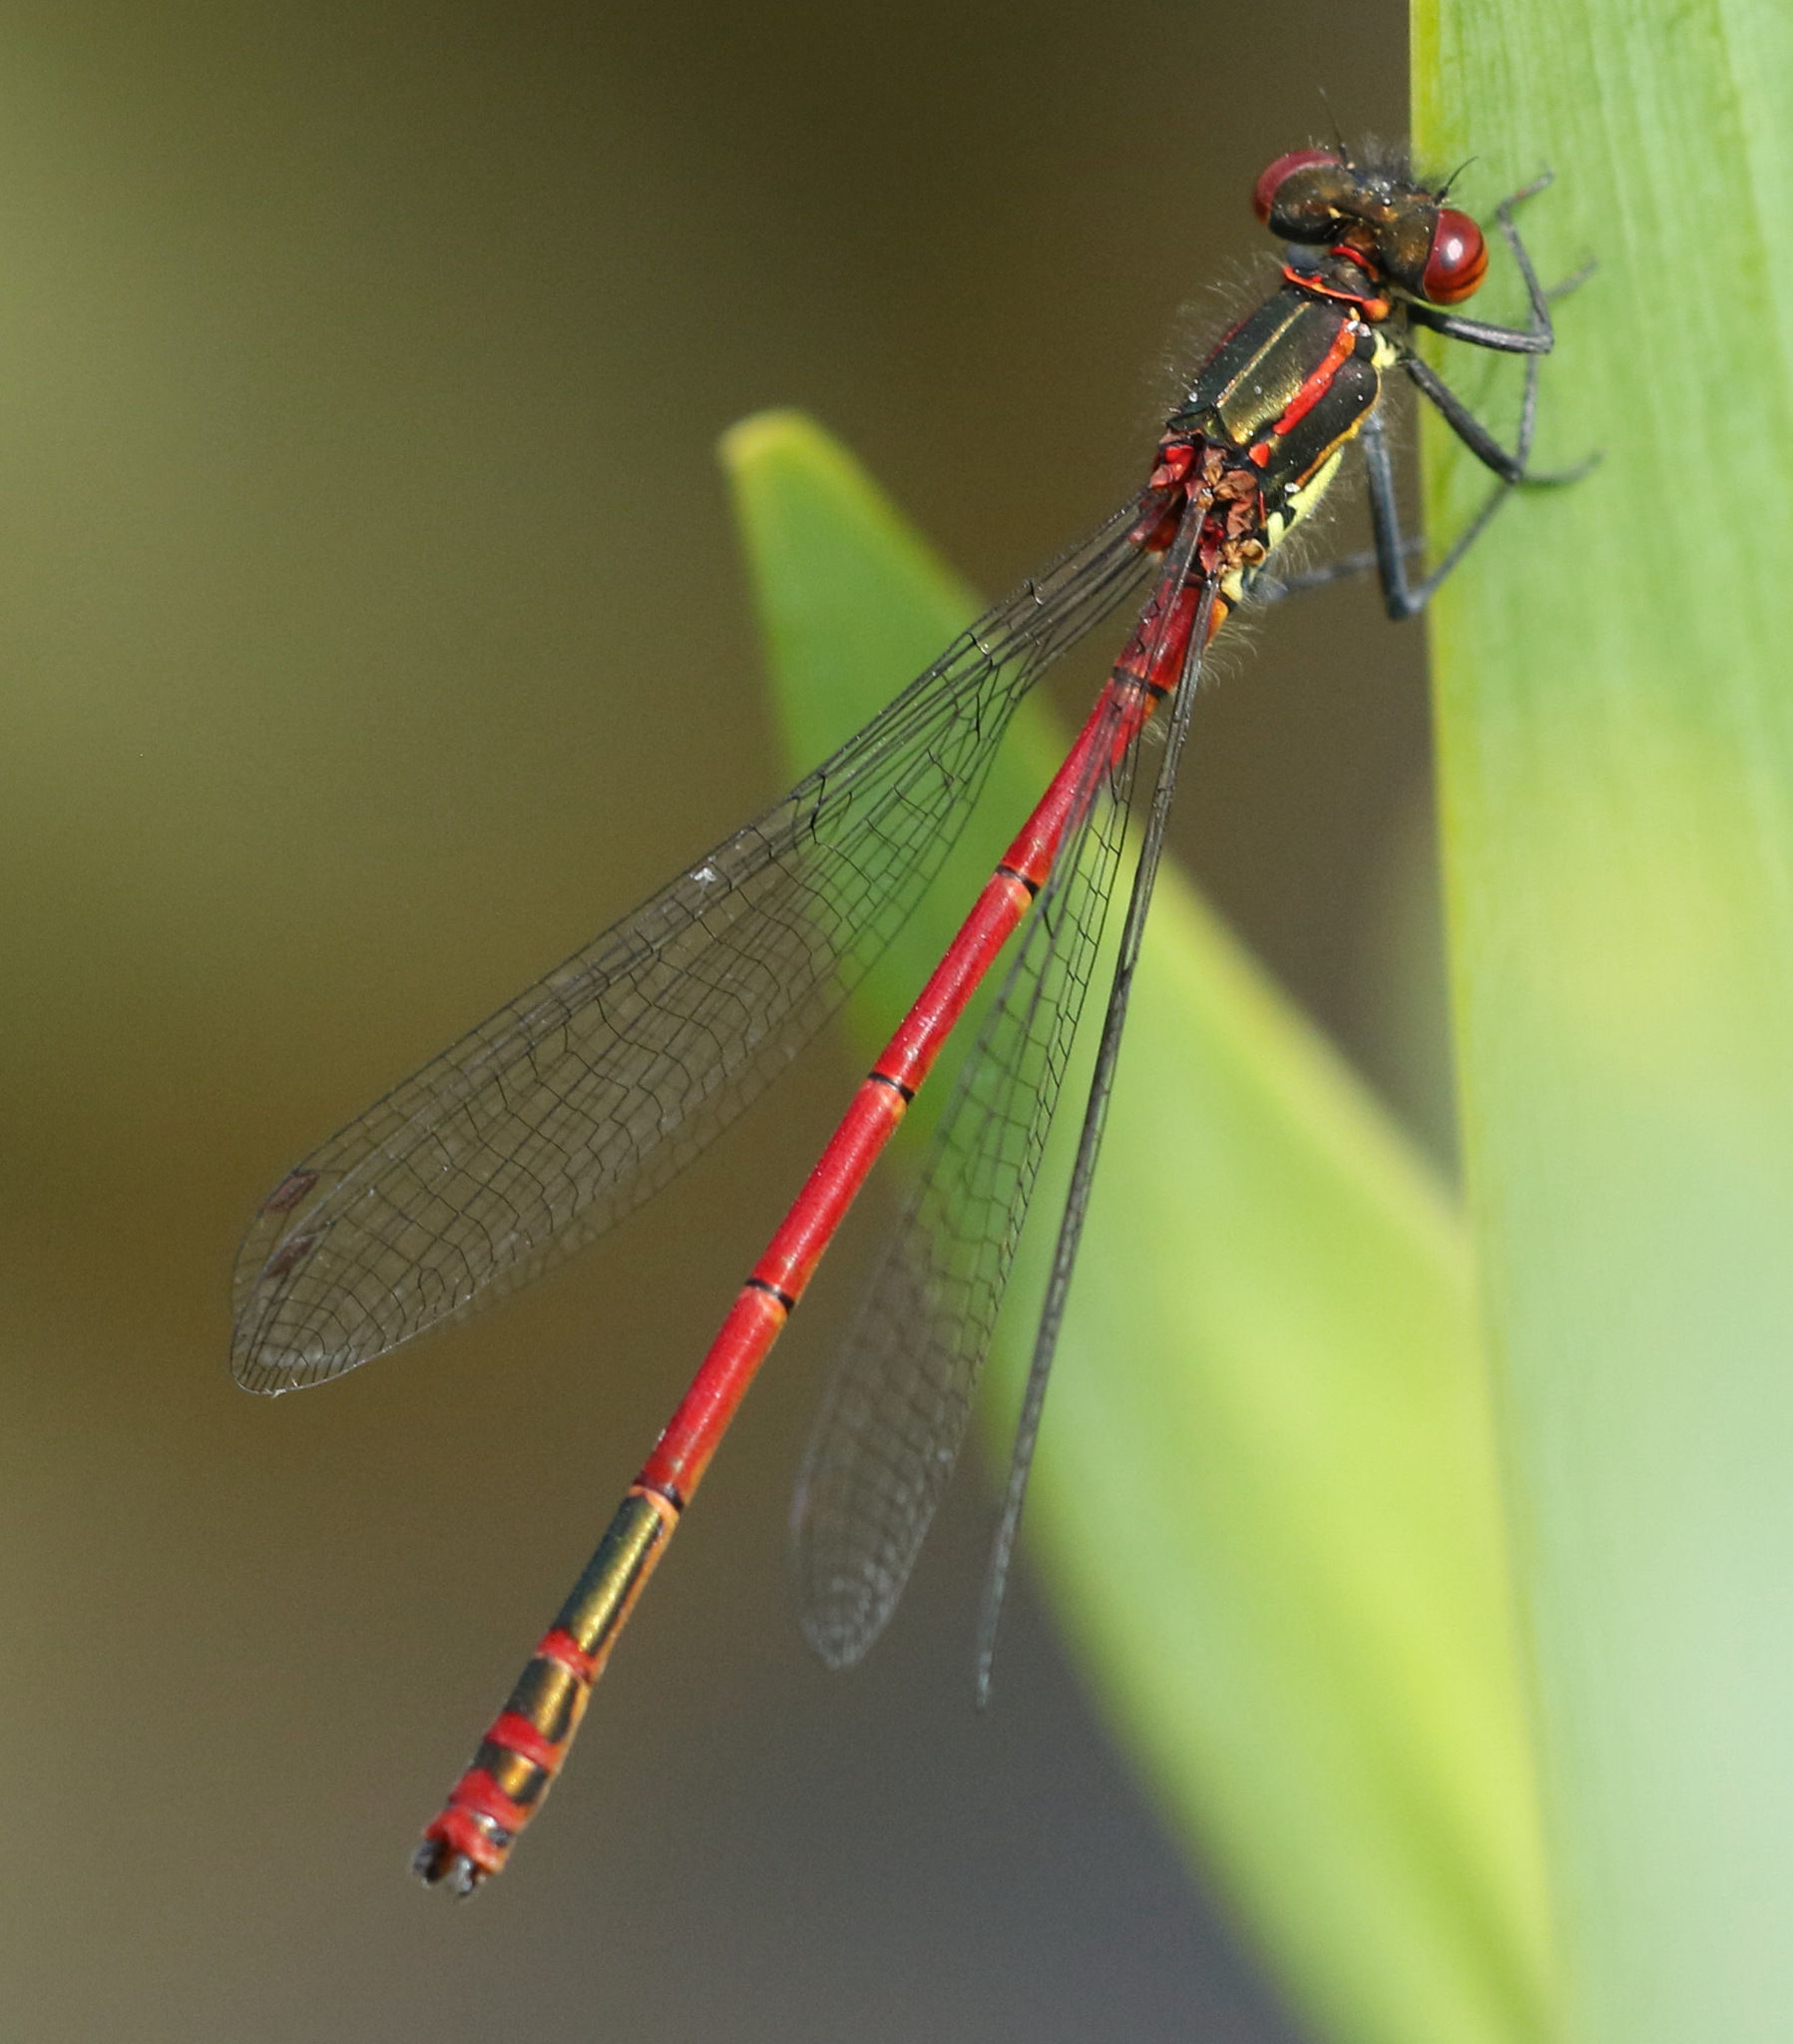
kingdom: Animalia
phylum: Arthropoda
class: Insecta
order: Odonata
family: Coenagrionidae
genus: Pyrrhosoma
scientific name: Pyrrhosoma nymphula
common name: Large red damsel
